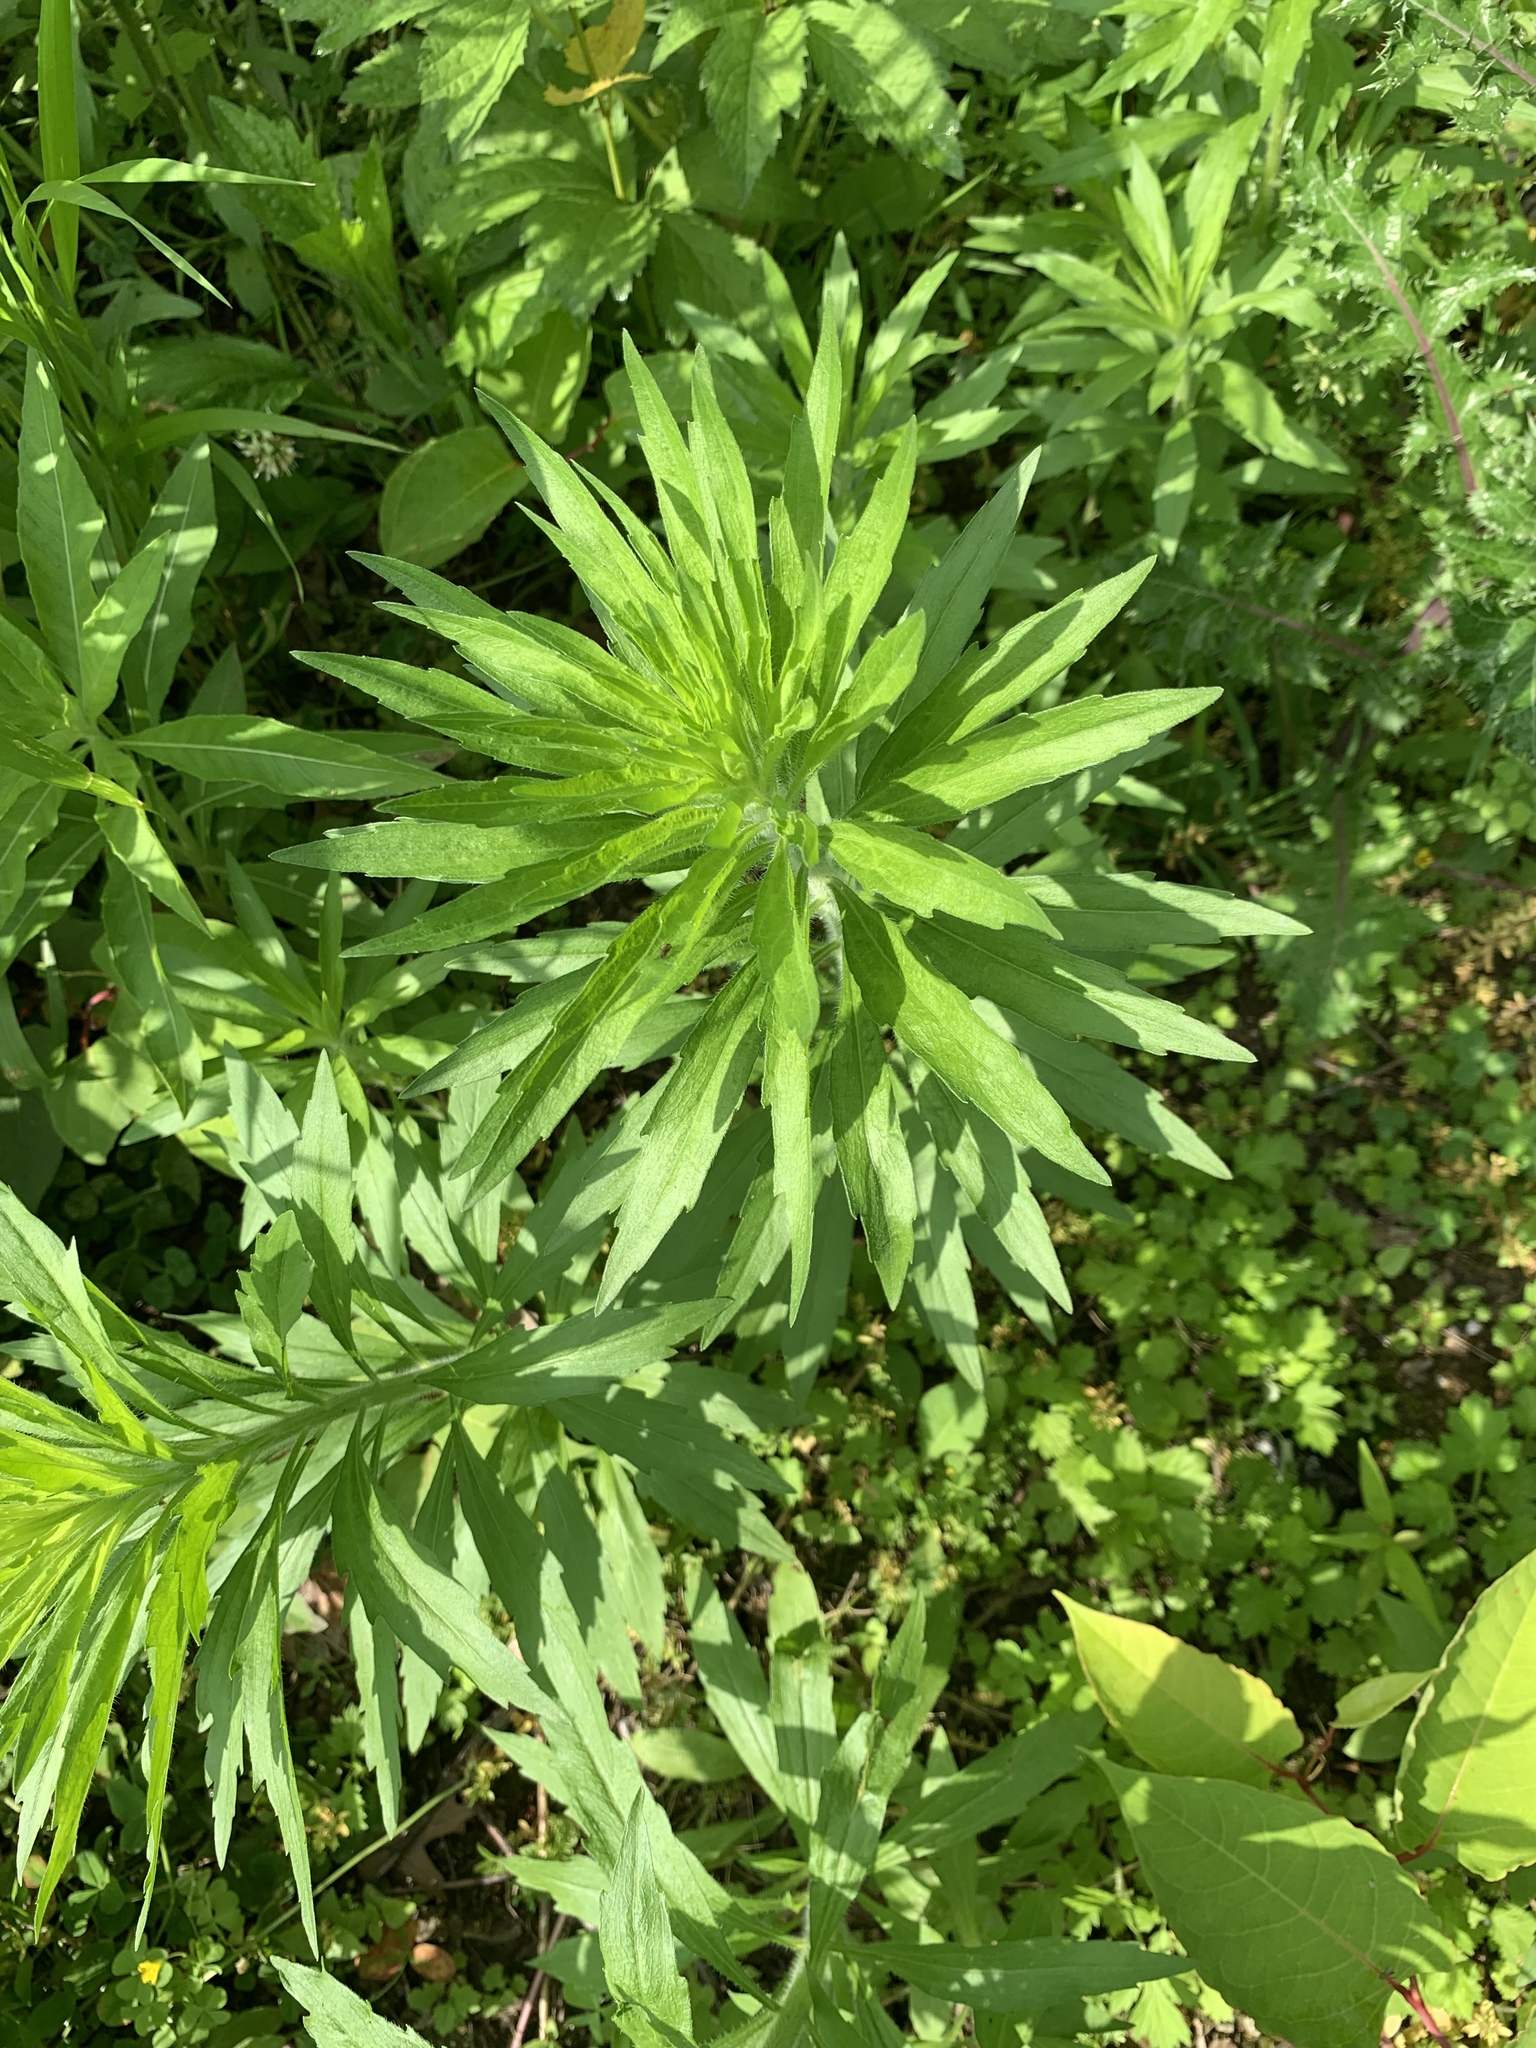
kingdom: Plantae
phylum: Tracheophyta
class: Magnoliopsida
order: Asterales
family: Asteraceae
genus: Erigeron
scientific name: Erigeron canadensis
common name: Canadian fleabane
